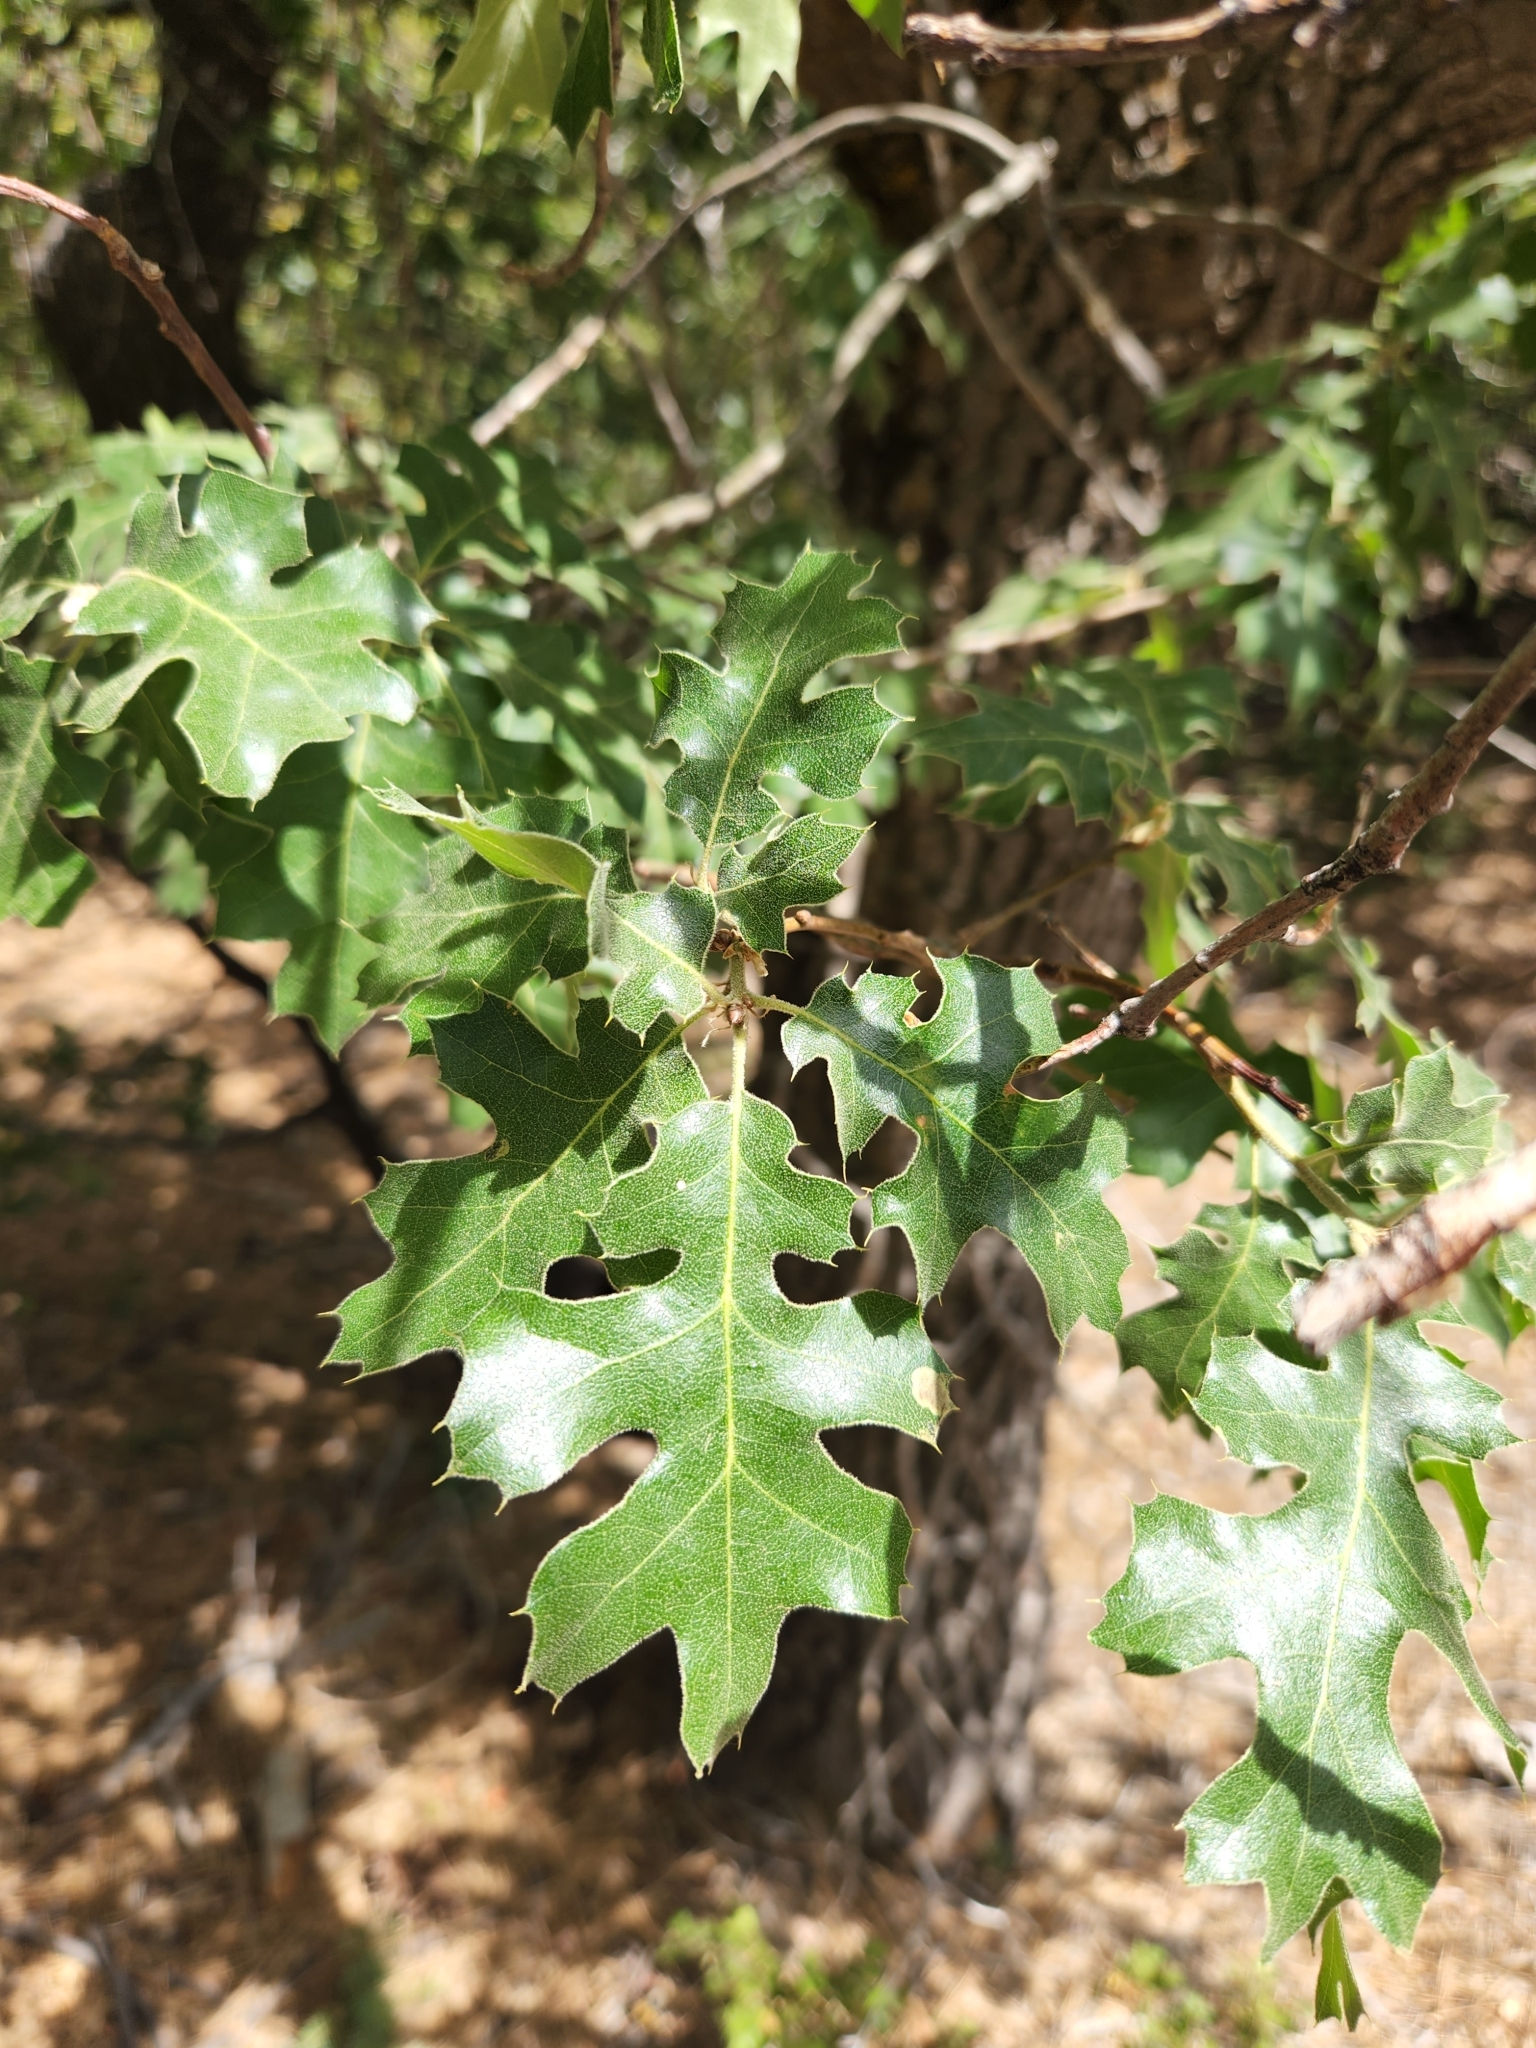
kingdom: Plantae
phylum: Tracheophyta
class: Magnoliopsida
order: Fagales
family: Fagaceae
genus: Quercus
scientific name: Quercus kelloggii
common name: California black oak
